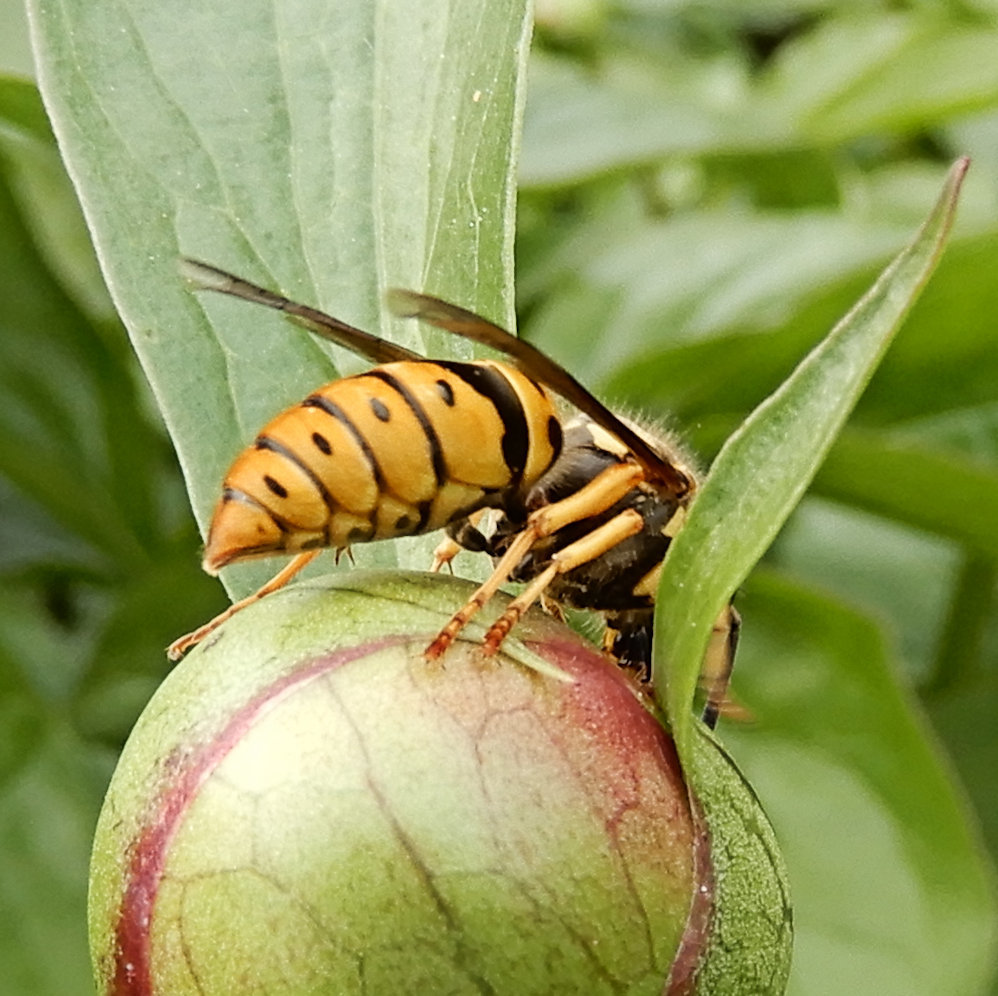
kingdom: Animalia
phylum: Arthropoda
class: Insecta
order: Hymenoptera
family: Vespidae
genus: Vespula
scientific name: Vespula maculifrons
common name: Eastern yellowjacket
